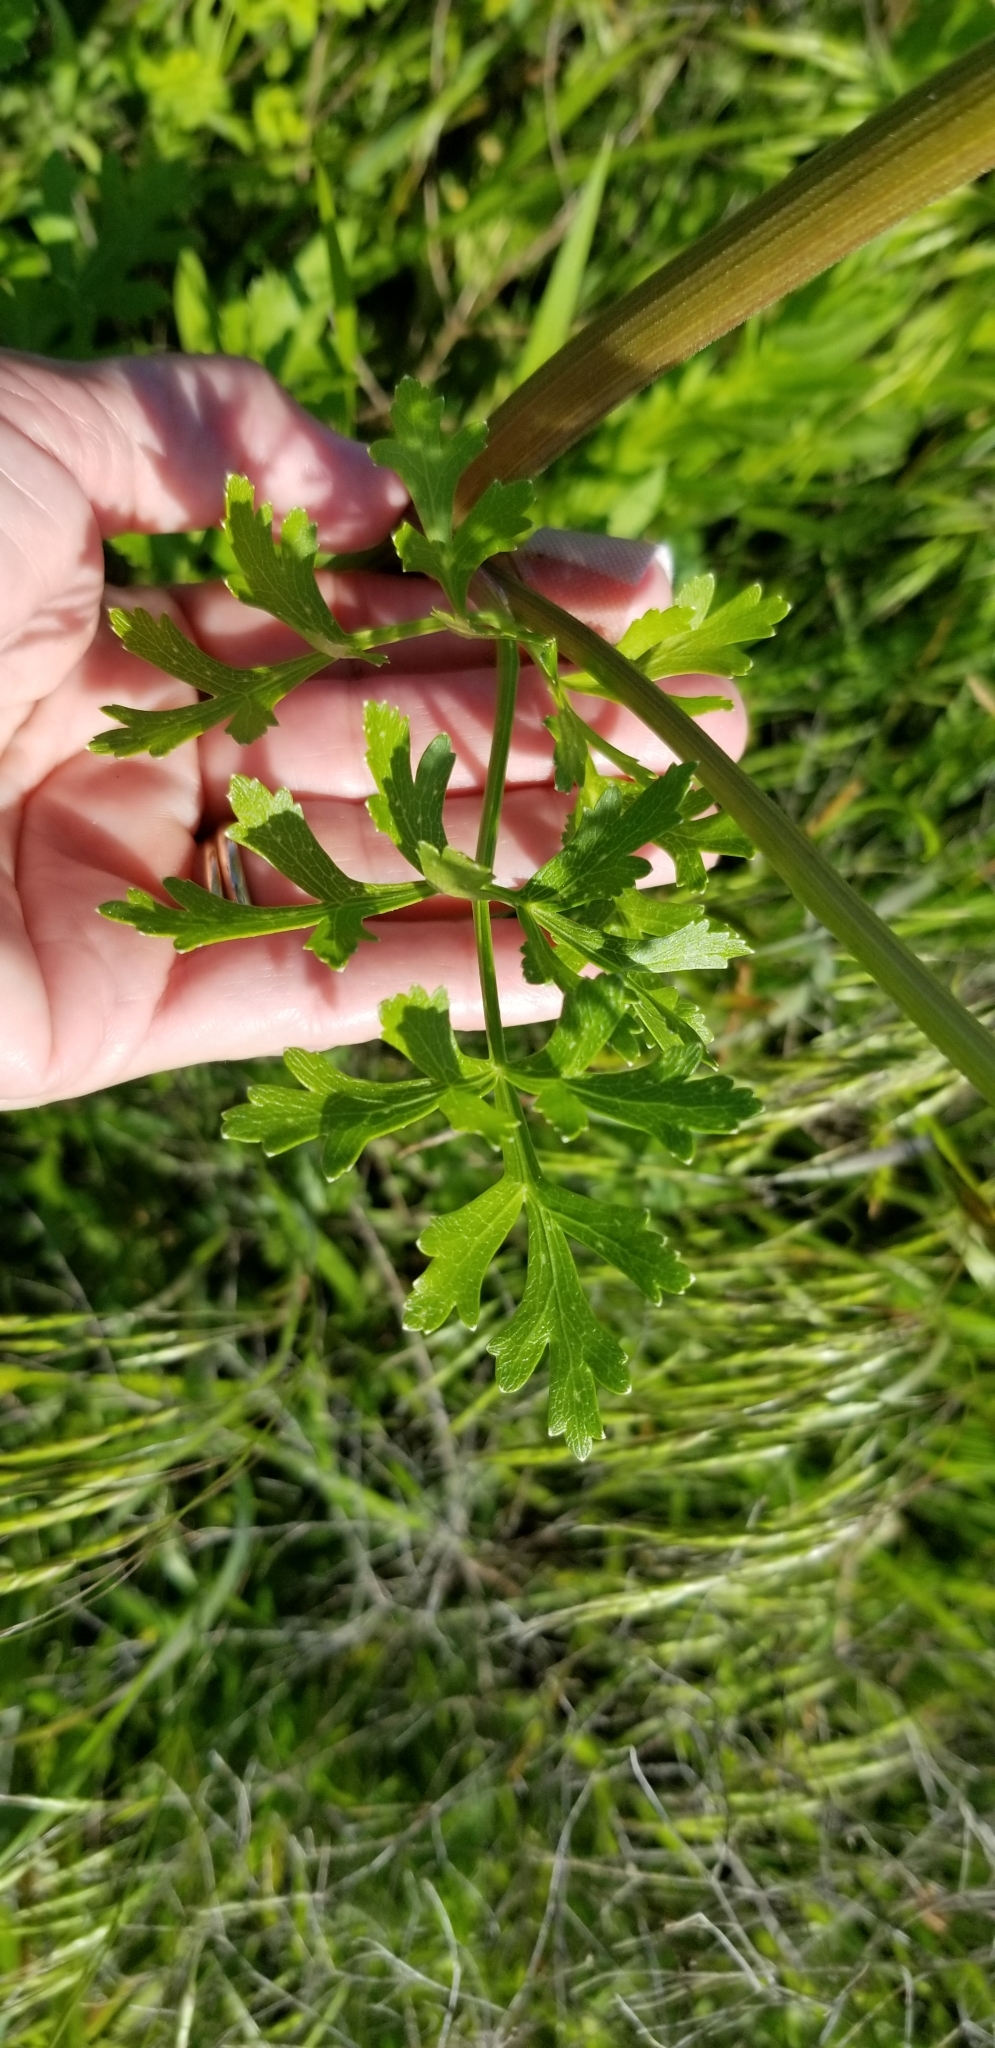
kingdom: Plantae
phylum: Tracheophyta
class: Magnoliopsida
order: Apiales
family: Apiaceae
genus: Polytaenia
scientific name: Polytaenia texana
